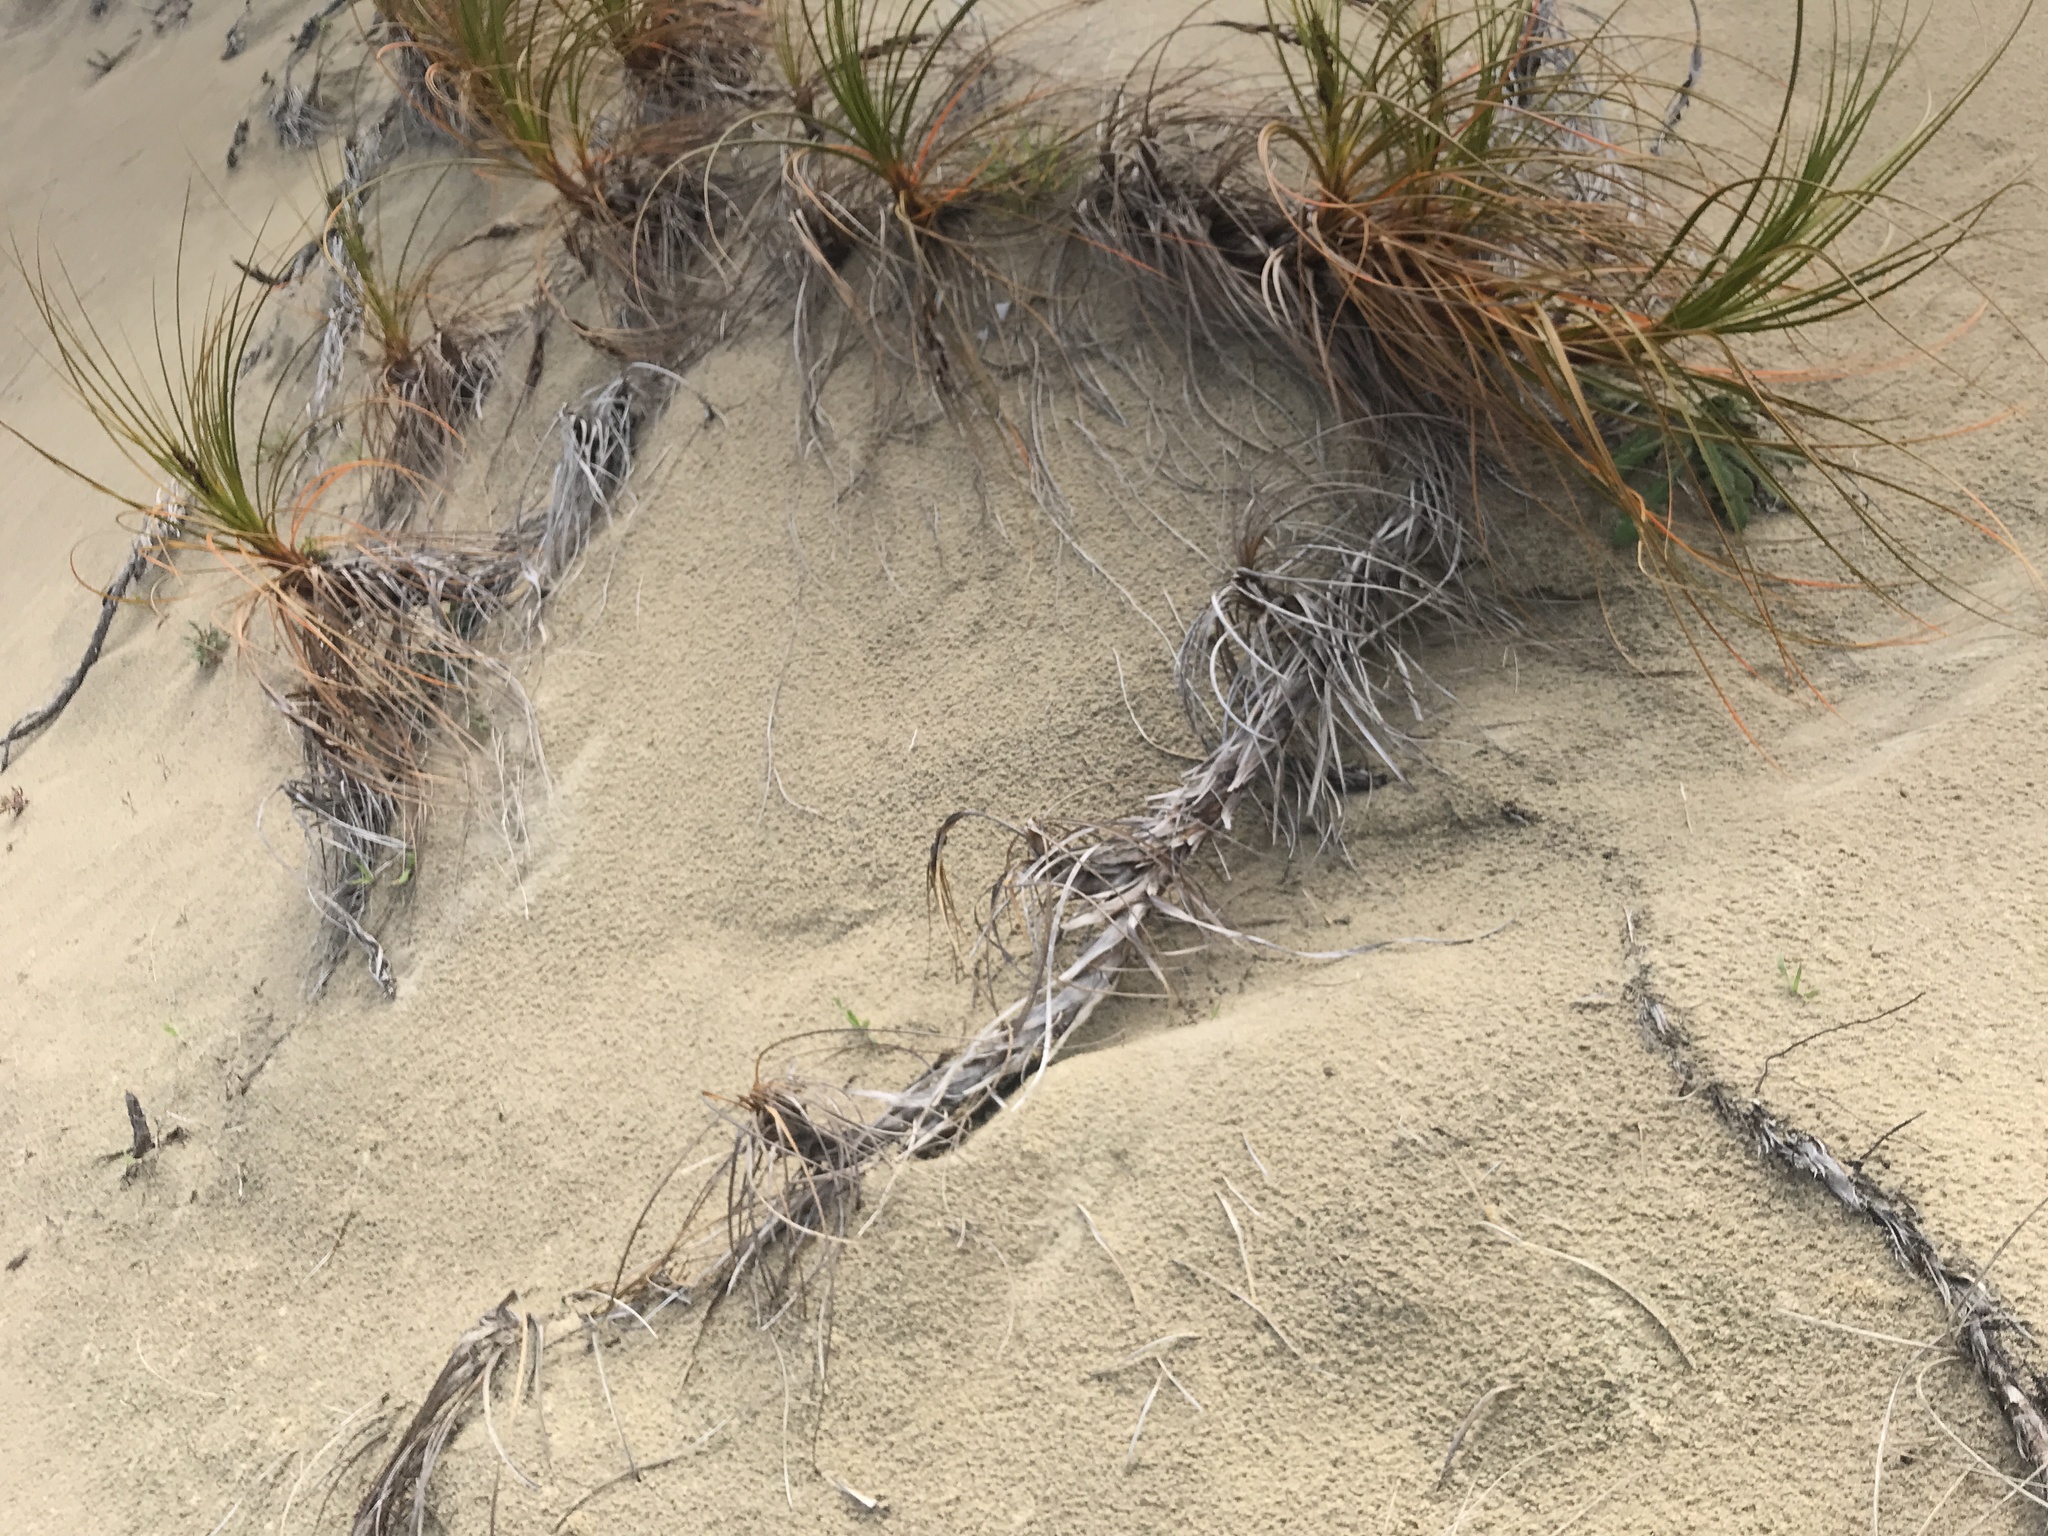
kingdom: Plantae
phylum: Tracheophyta
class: Liliopsida
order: Poales
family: Cyperaceae
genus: Ficinia
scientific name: Ficinia spiralis
